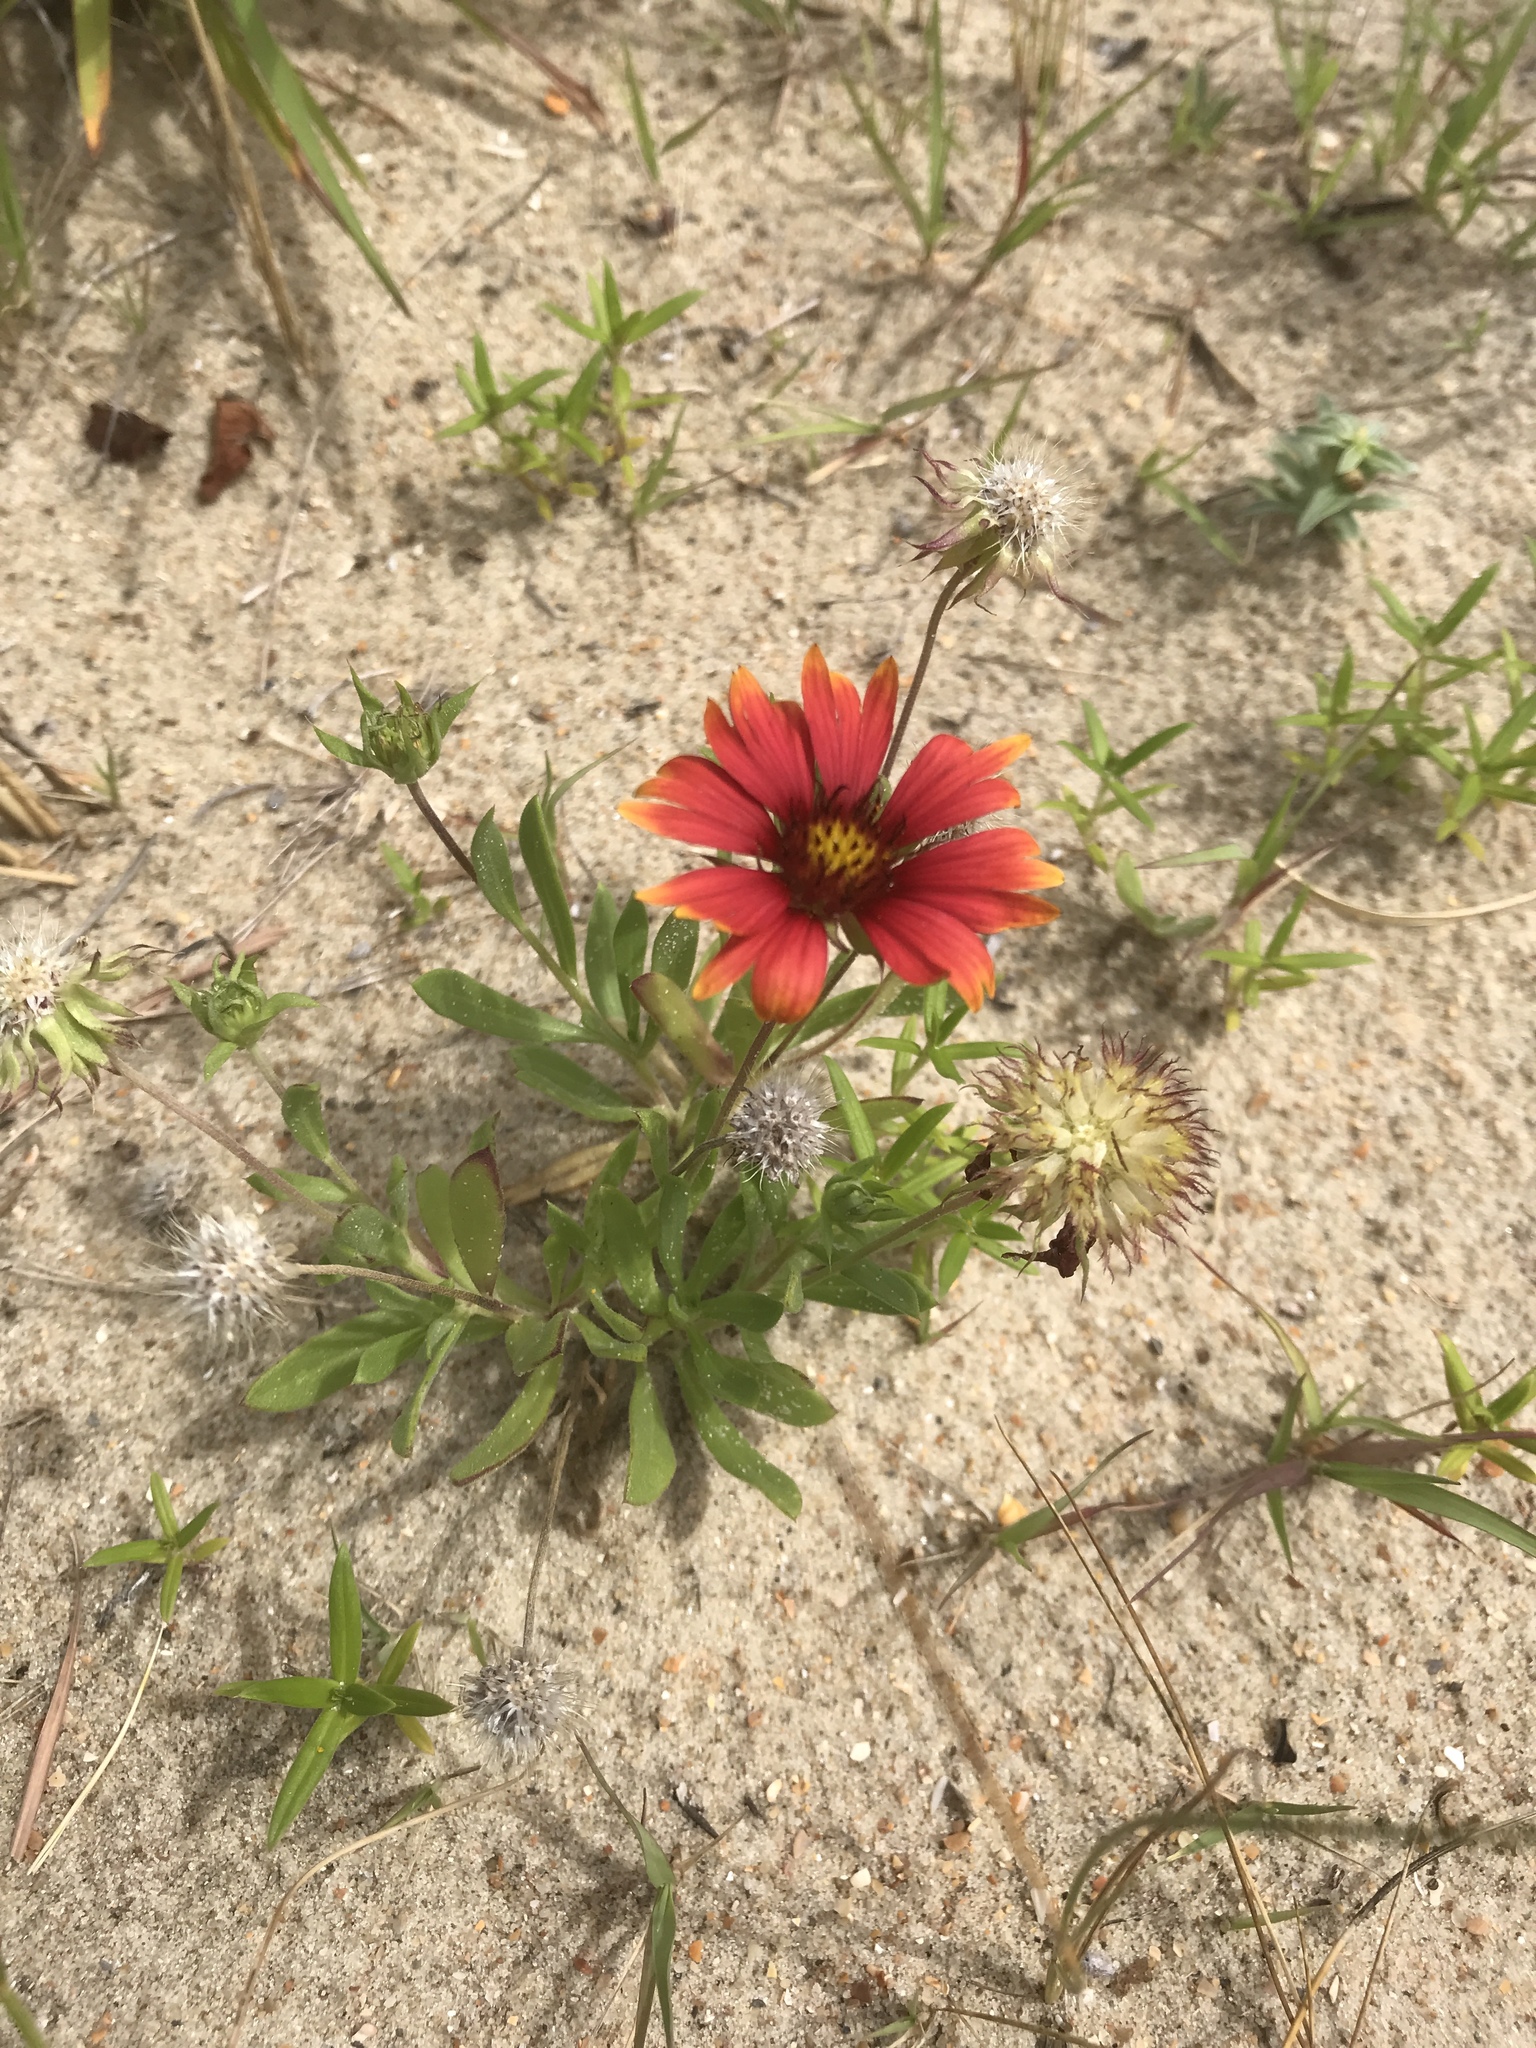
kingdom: Plantae
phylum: Tracheophyta
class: Magnoliopsida
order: Asterales
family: Asteraceae
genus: Gaillardia
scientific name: Gaillardia pulchella
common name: Firewheel
